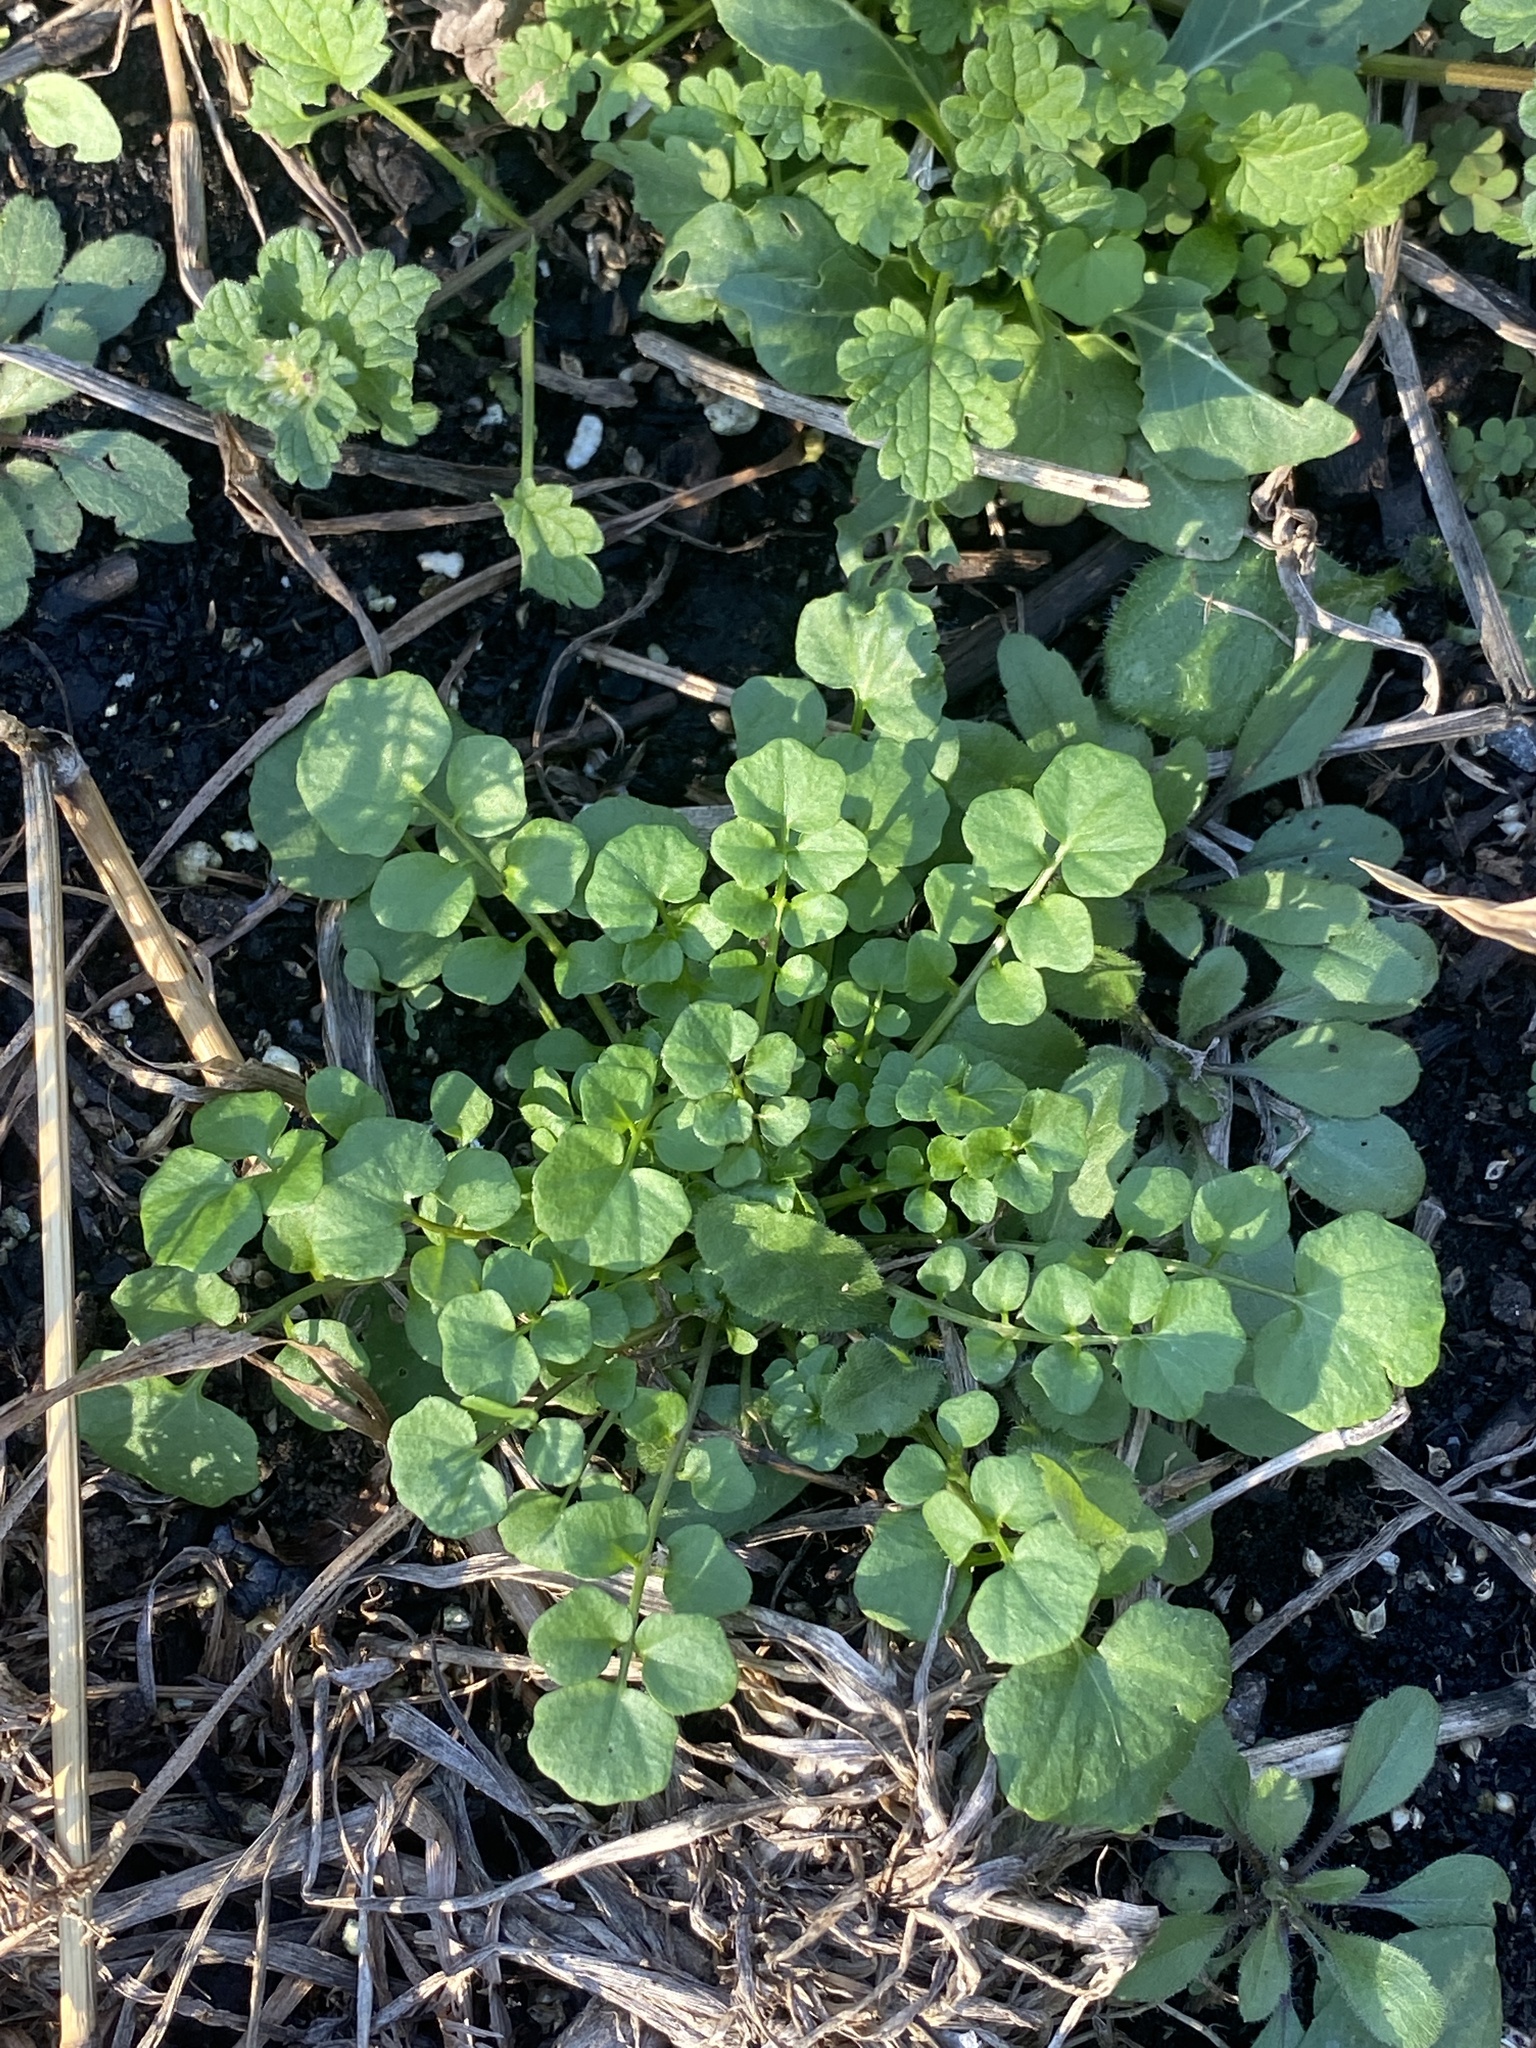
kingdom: Plantae
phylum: Tracheophyta
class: Magnoliopsida
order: Brassicales
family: Brassicaceae
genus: Cardamine
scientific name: Cardamine hirsuta
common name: Hairy bittercress
